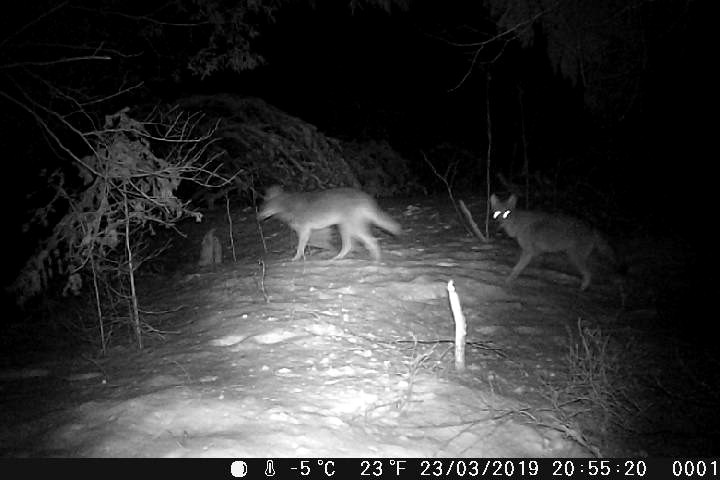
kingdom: Animalia
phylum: Chordata
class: Mammalia
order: Carnivora
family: Canidae
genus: Canis
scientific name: Canis latrans
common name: Coyote
